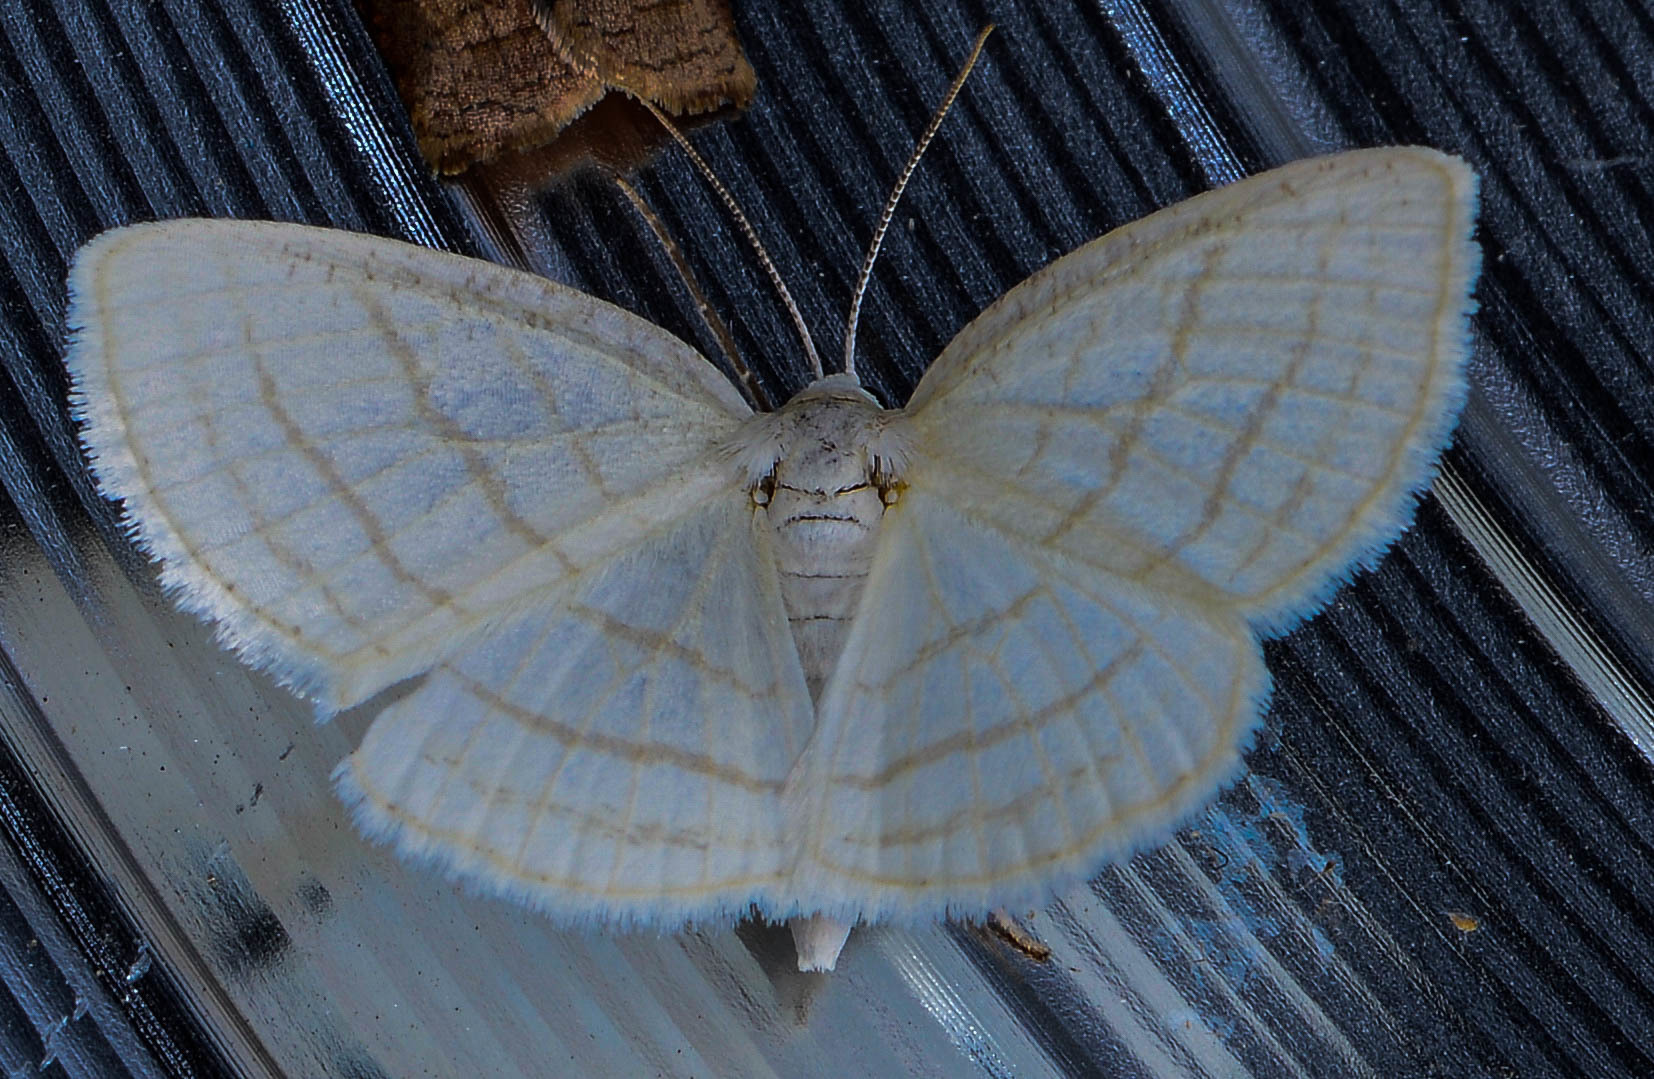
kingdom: Animalia
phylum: Arthropoda
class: Insecta
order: Lepidoptera
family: Geometridae
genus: Cabera
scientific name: Cabera quadrifasciaria
